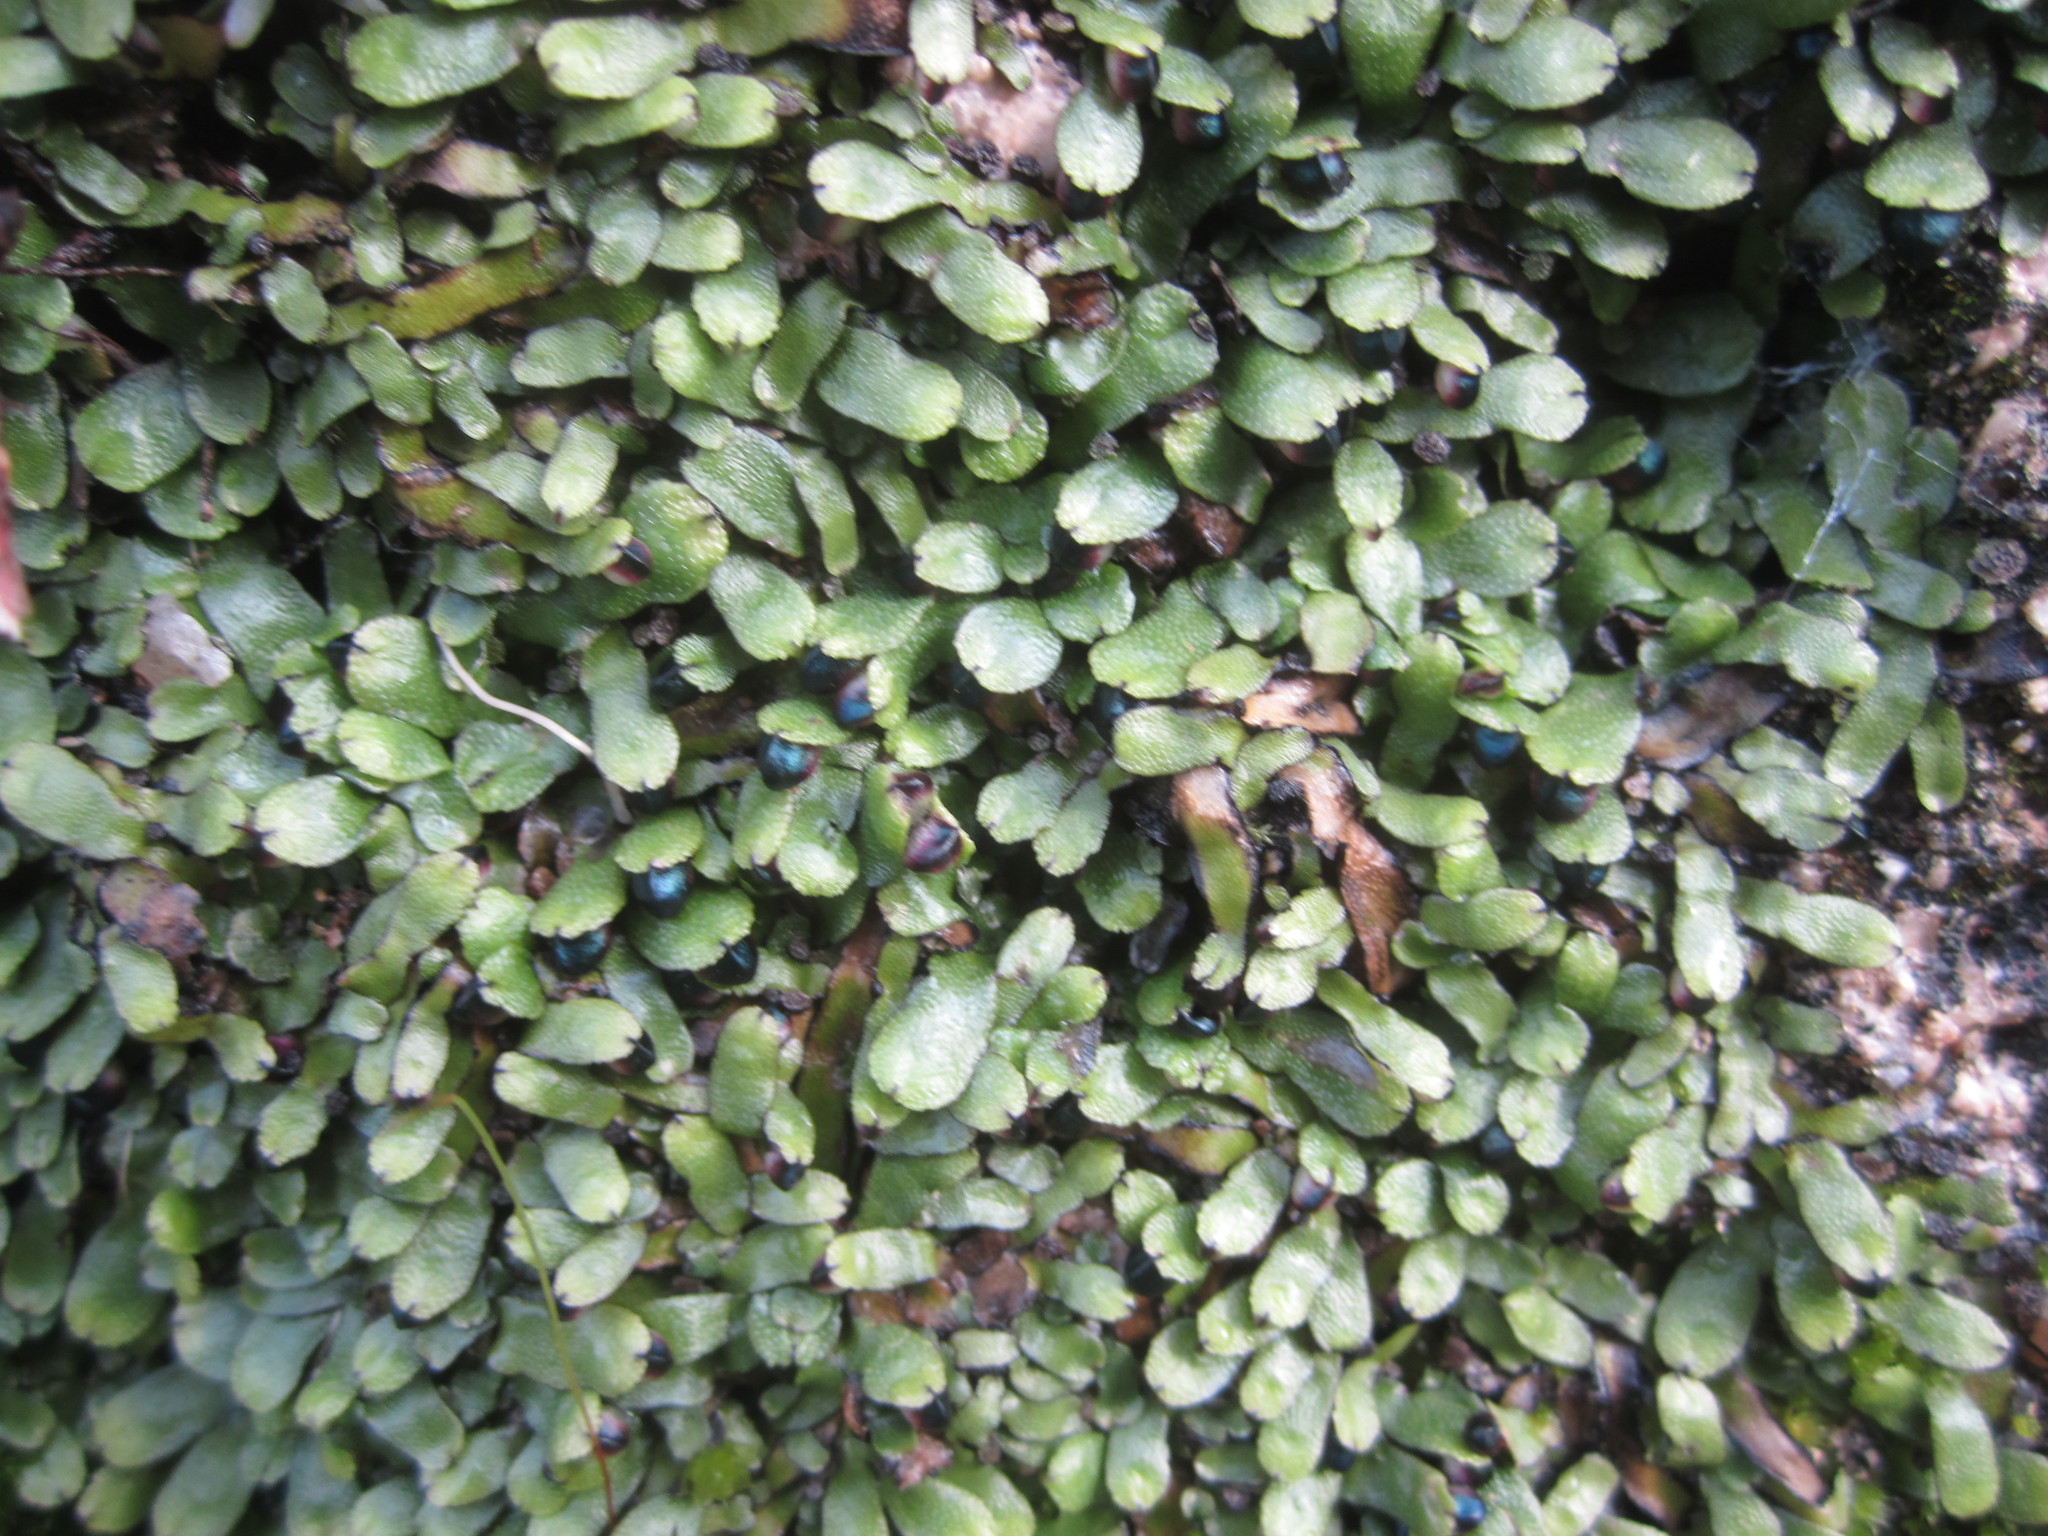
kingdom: Plantae
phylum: Marchantiophyta
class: Marchantiopsida
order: Marchantiales
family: Targioniaceae
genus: Targionia
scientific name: Targionia hypophylla
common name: Orobus-seed liverwort
